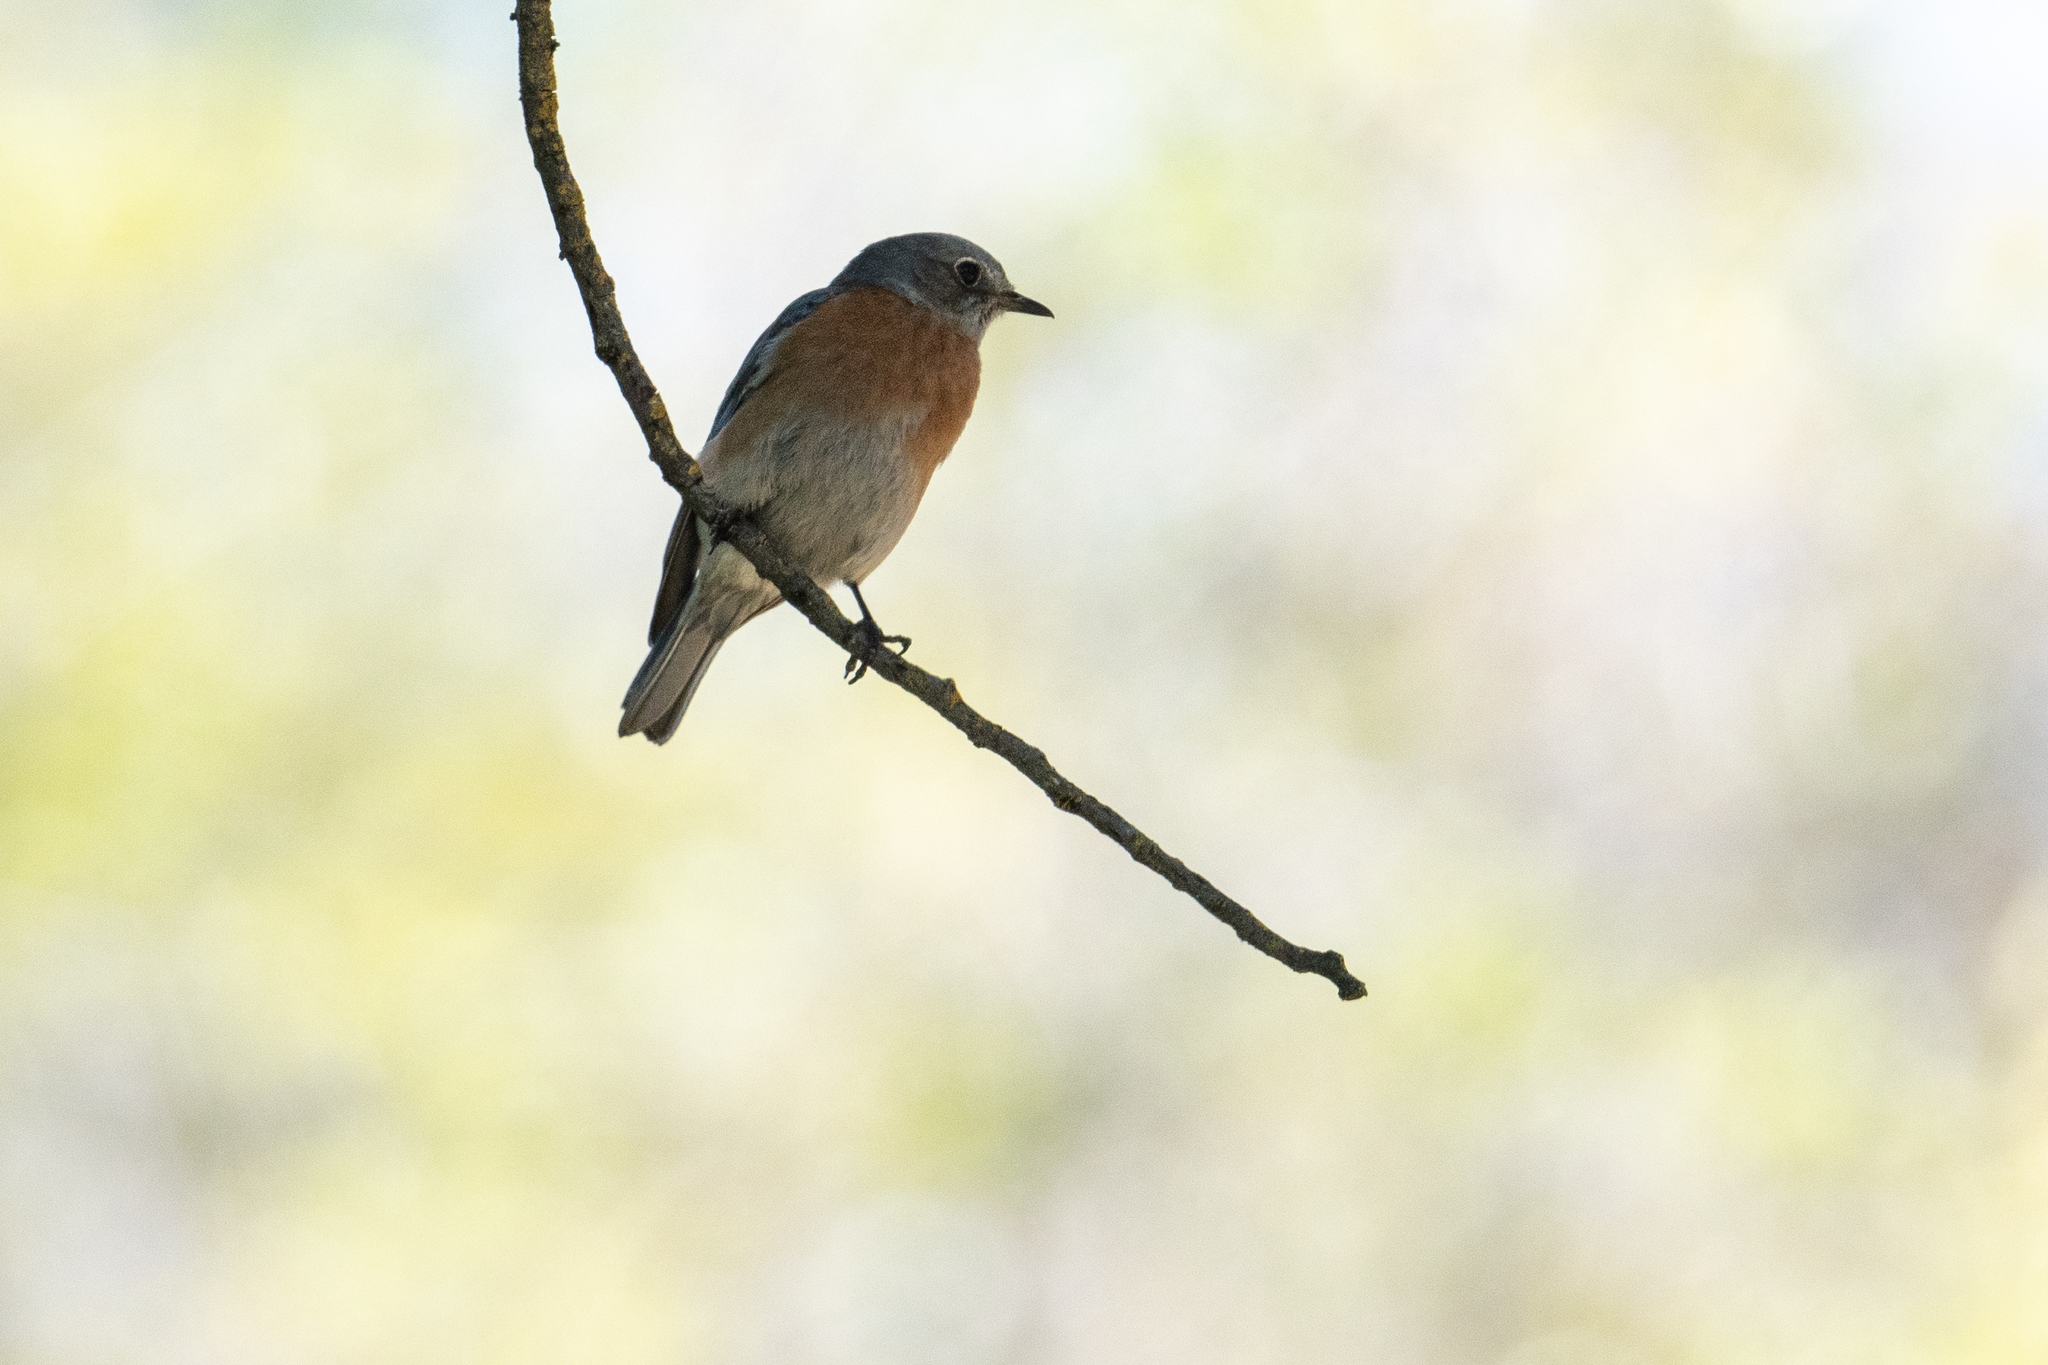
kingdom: Animalia
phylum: Chordata
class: Aves
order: Passeriformes
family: Turdidae
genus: Sialia
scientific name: Sialia mexicana
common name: Western bluebird
